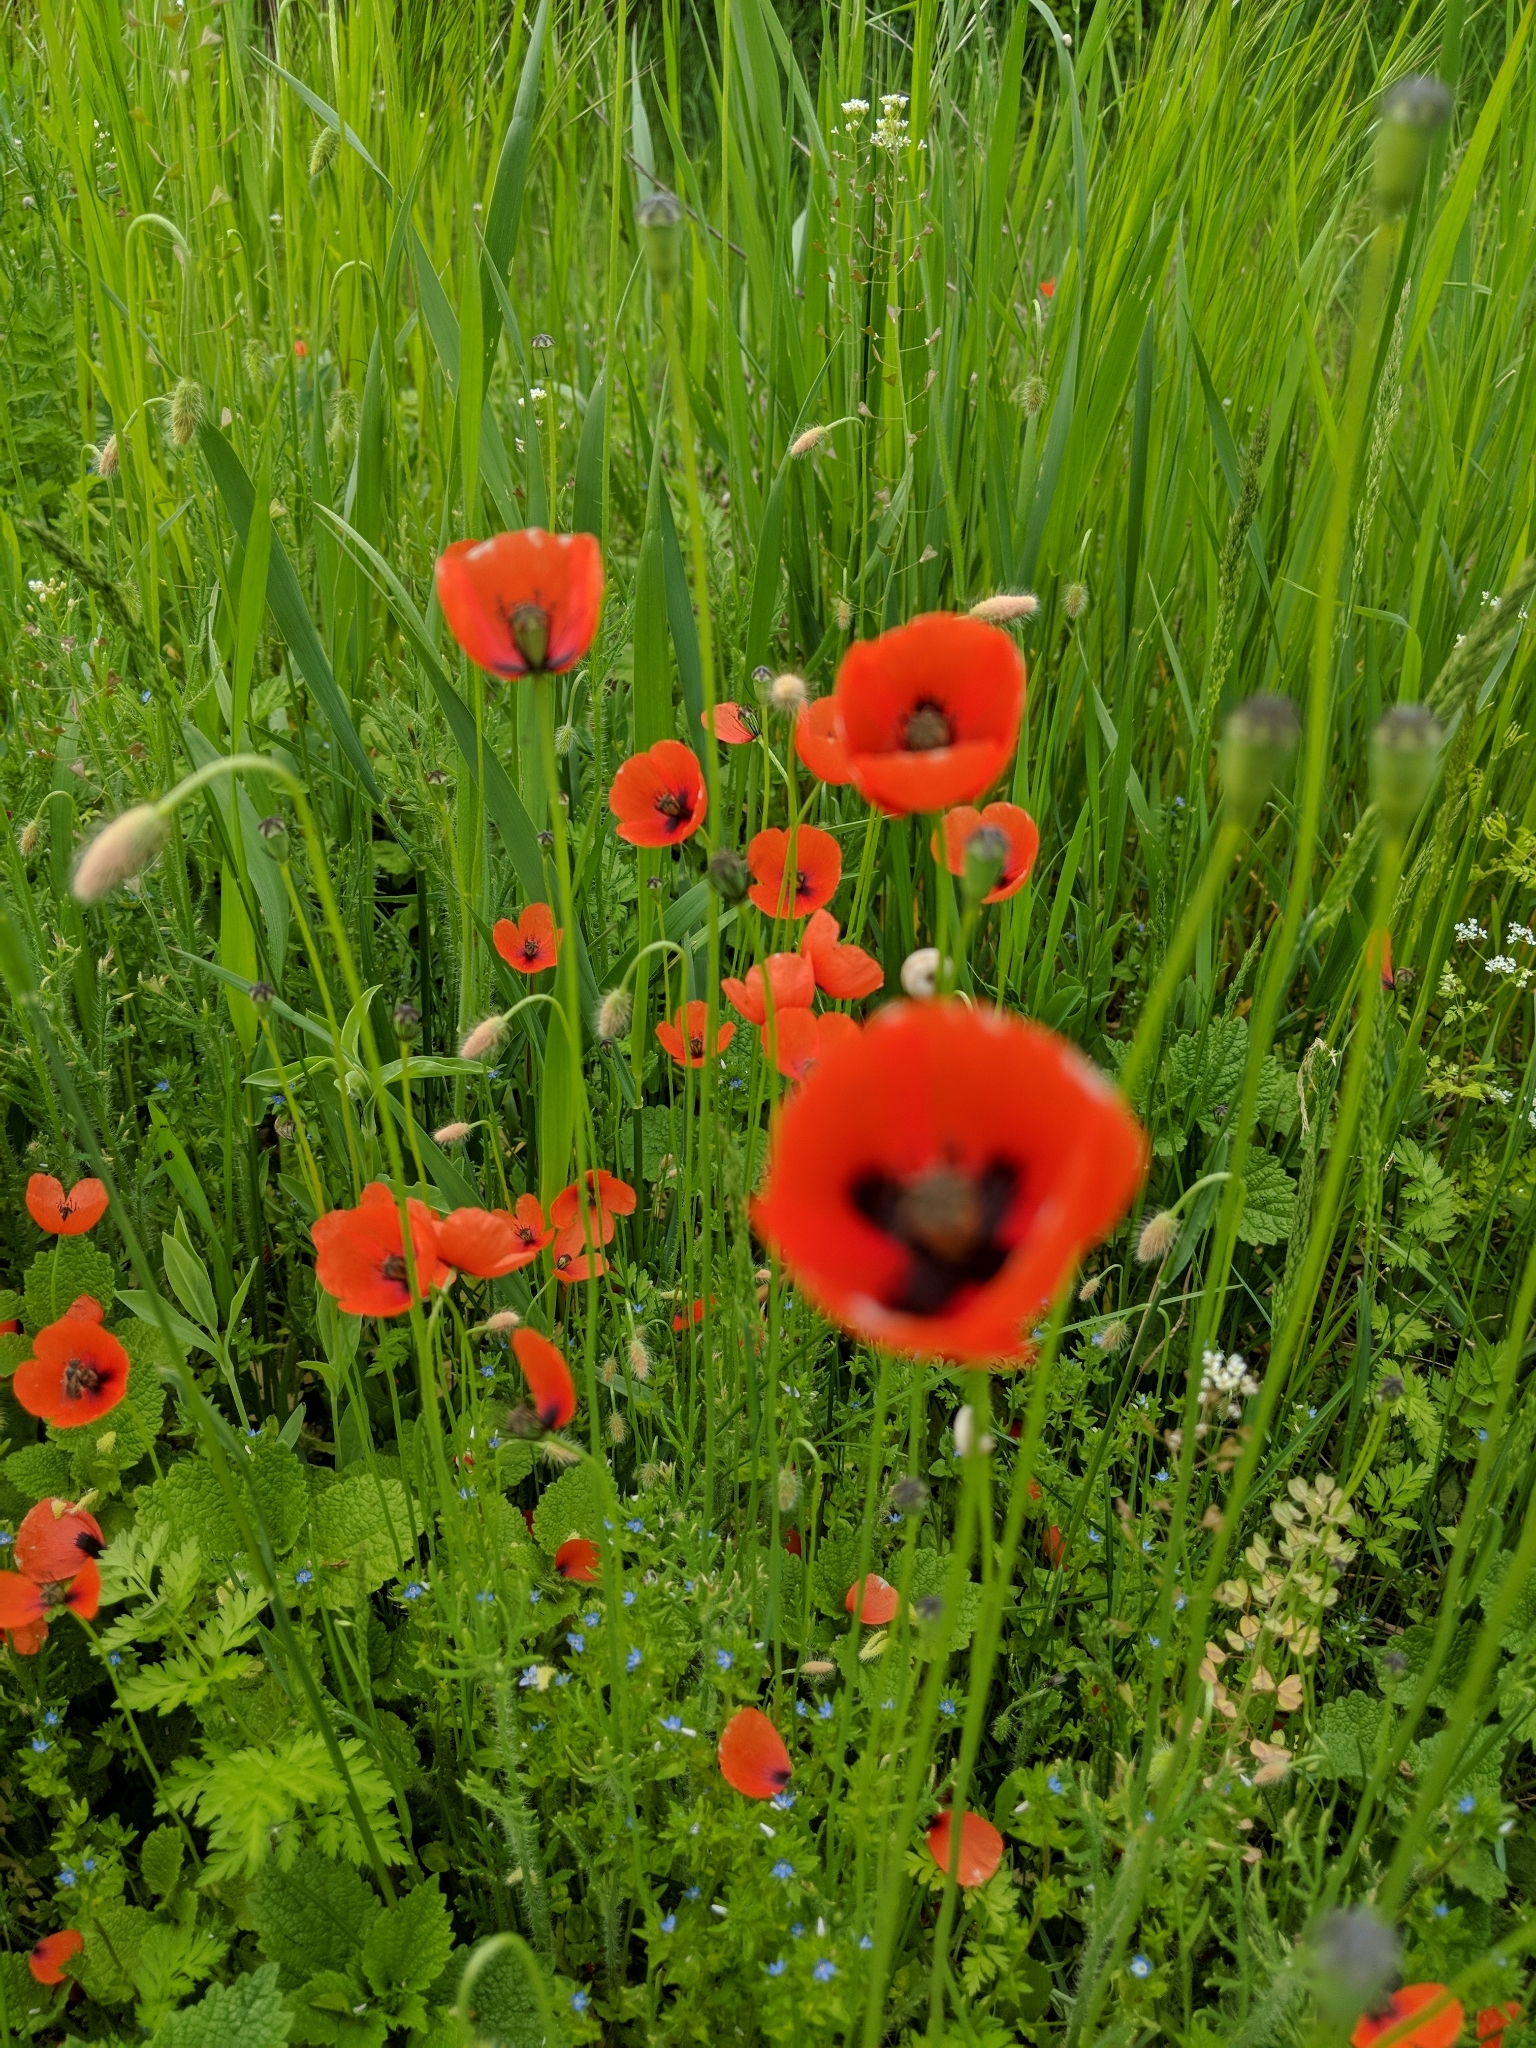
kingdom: Plantae
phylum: Tracheophyta
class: Magnoliopsida
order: Ranunculales
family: Papaveraceae
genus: Papaver
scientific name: Papaver rhoeas
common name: Corn poppy
